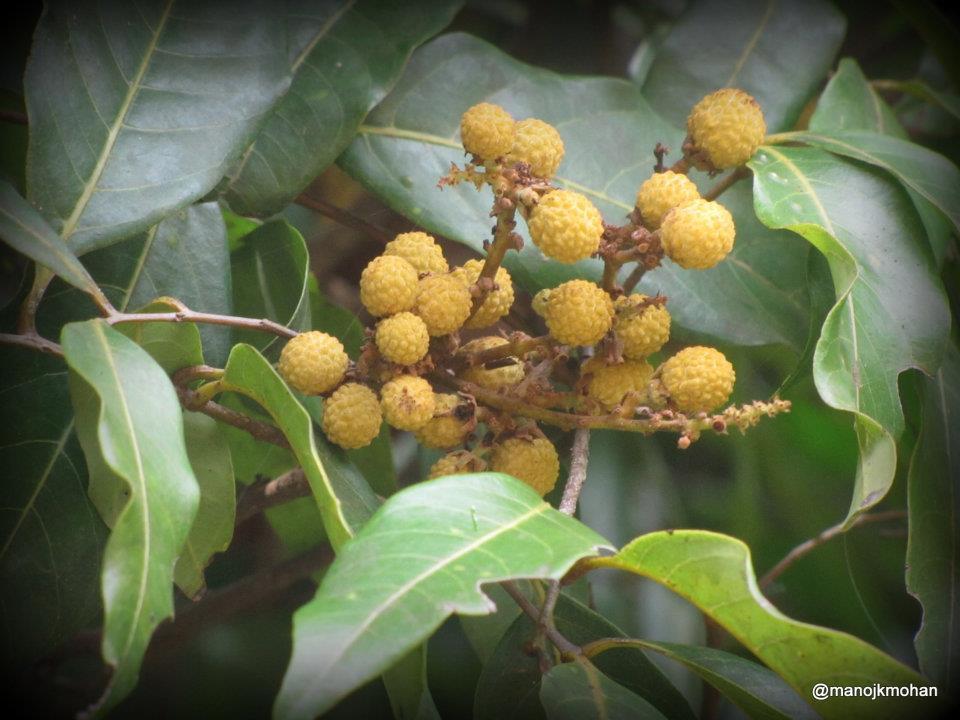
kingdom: Plantae
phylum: Tracheophyta
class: Magnoliopsida
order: Sapindales
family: Sapindaceae
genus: Dimocarpus
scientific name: Dimocarpus longan
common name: Longan
